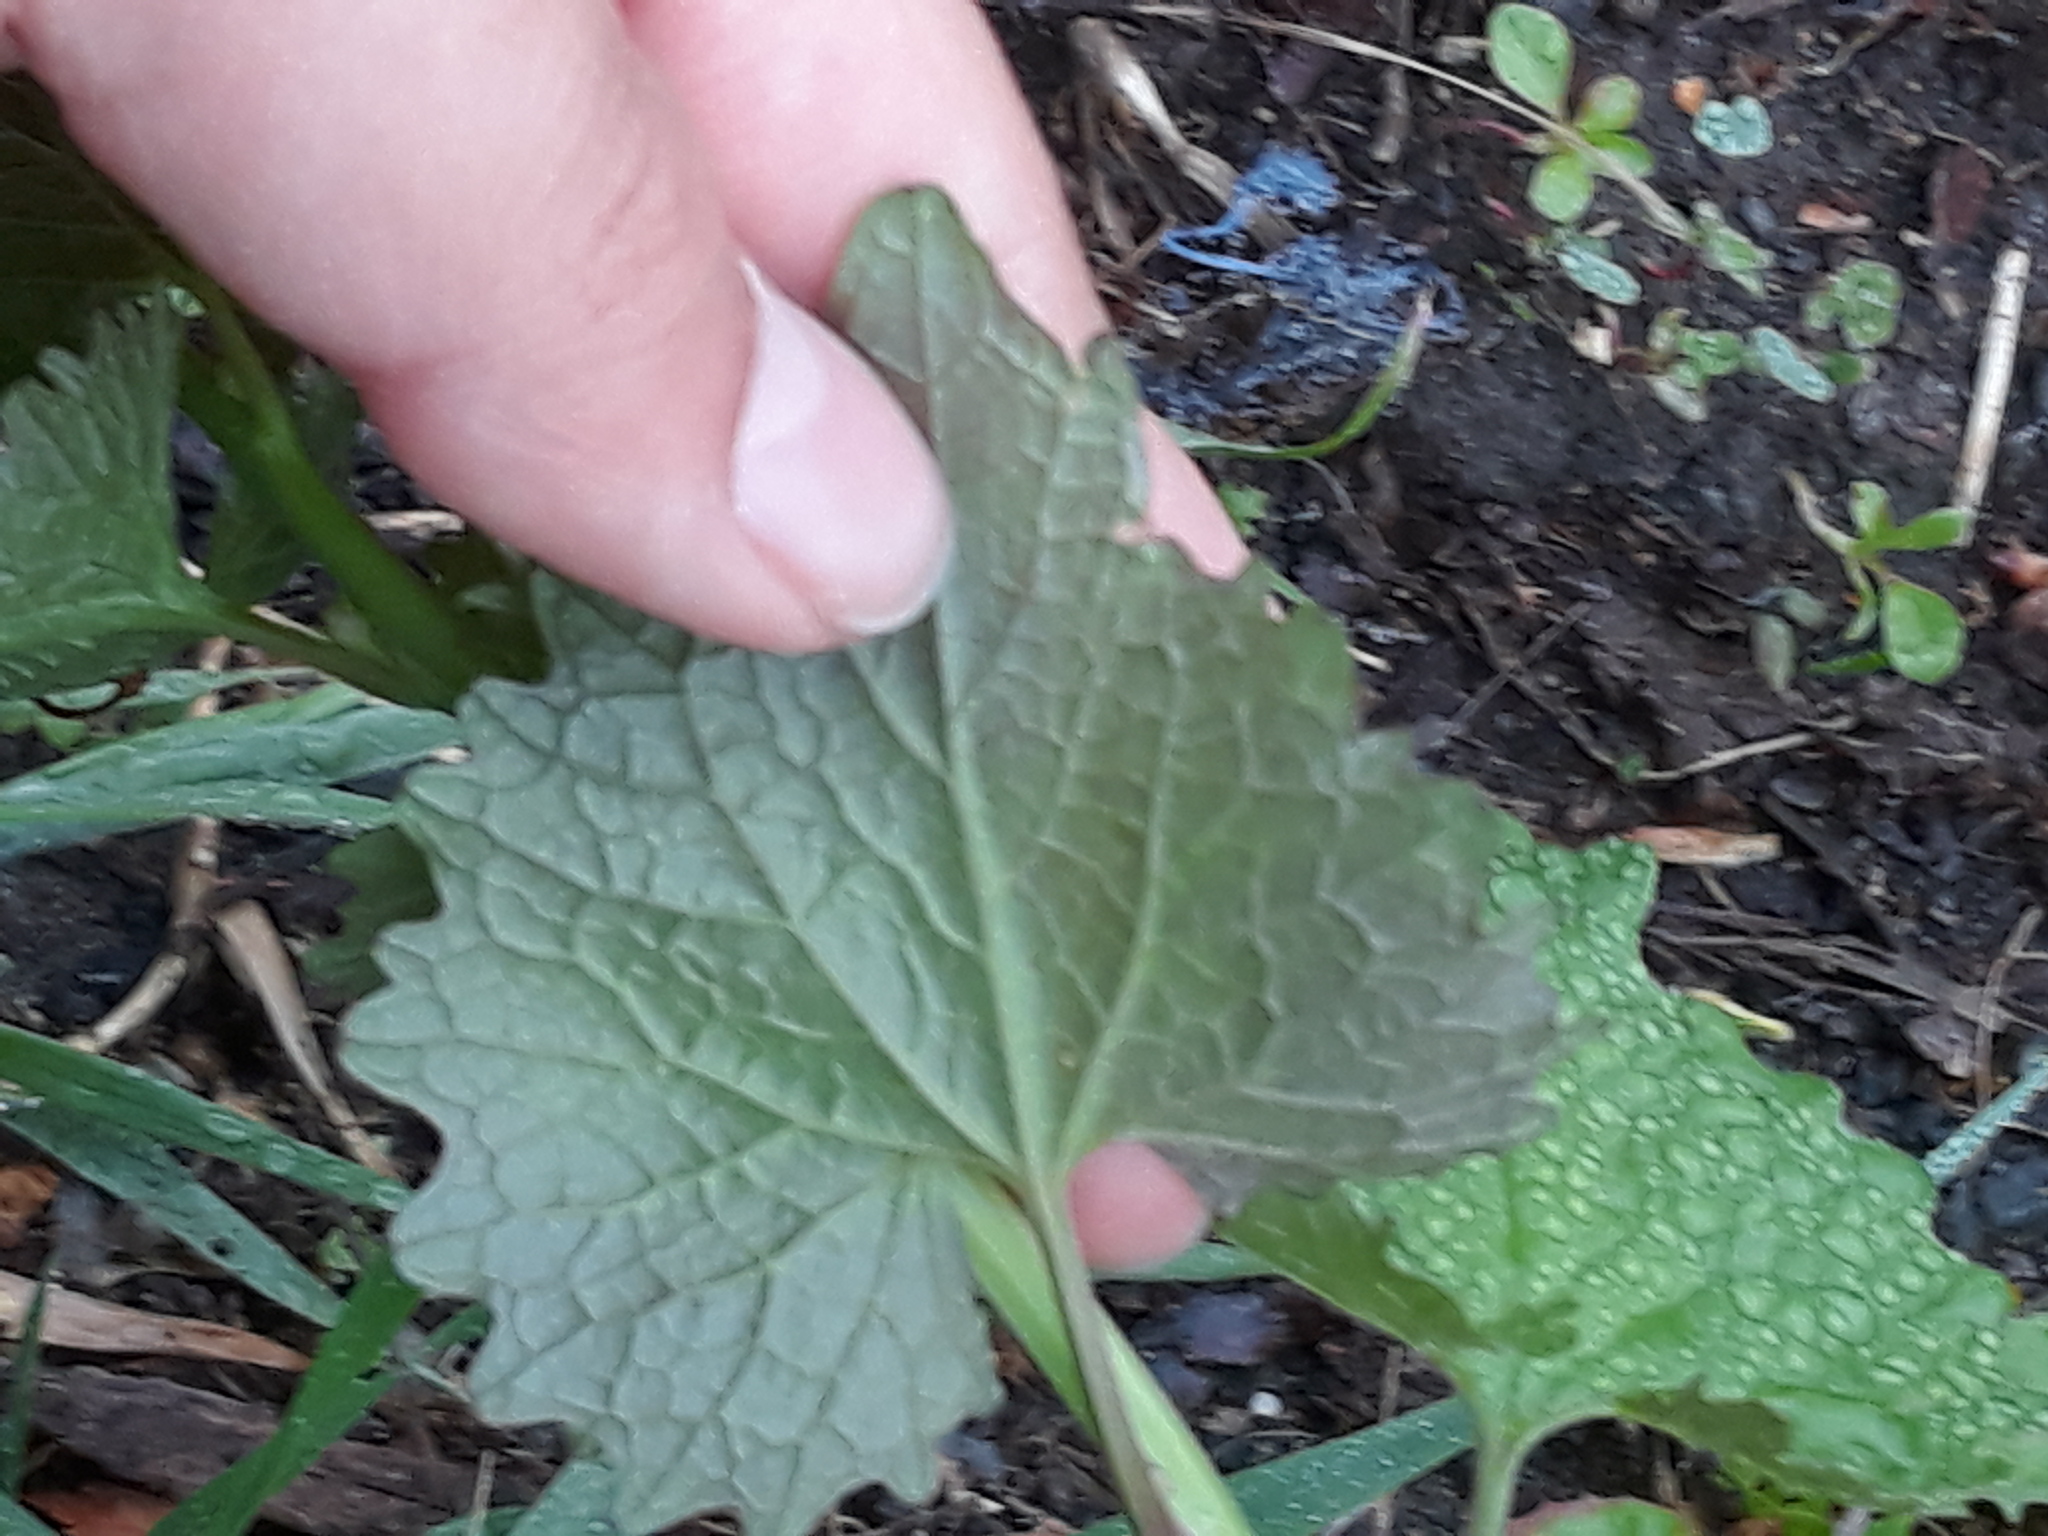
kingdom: Plantae
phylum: Tracheophyta
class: Magnoliopsida
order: Brassicales
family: Brassicaceae
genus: Alliaria
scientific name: Alliaria petiolata
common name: Garlic mustard
